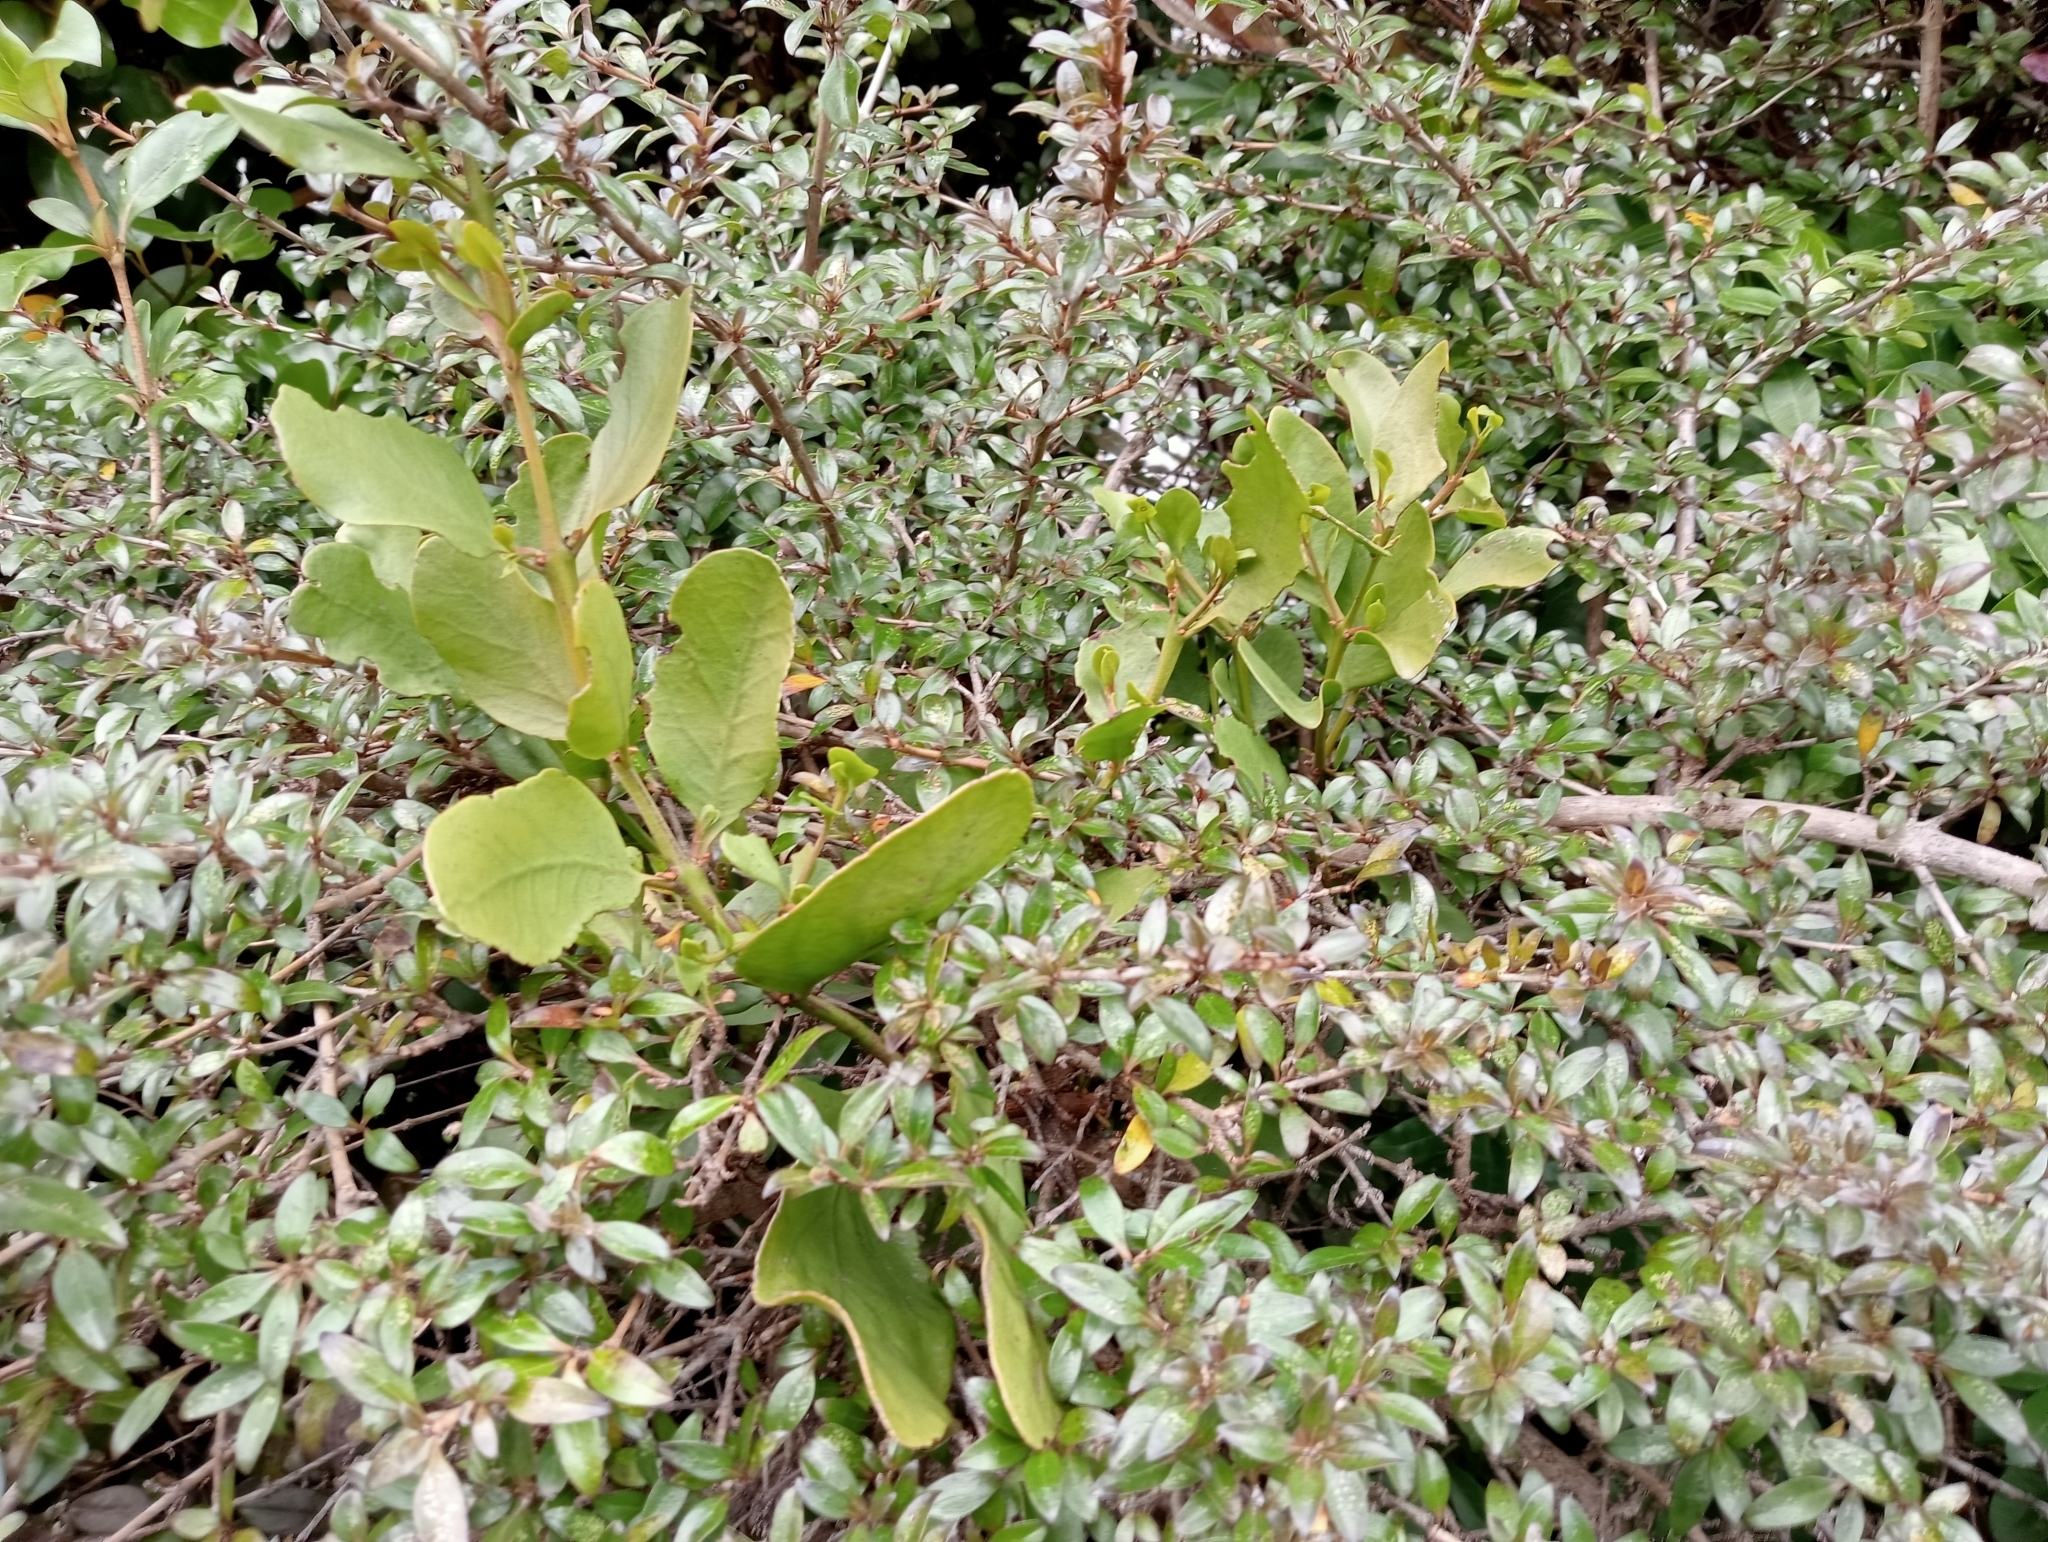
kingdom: Plantae
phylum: Tracheophyta
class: Magnoliopsida
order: Santalales
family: Loranthaceae
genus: Ileostylus
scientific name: Ileostylus micranthus
